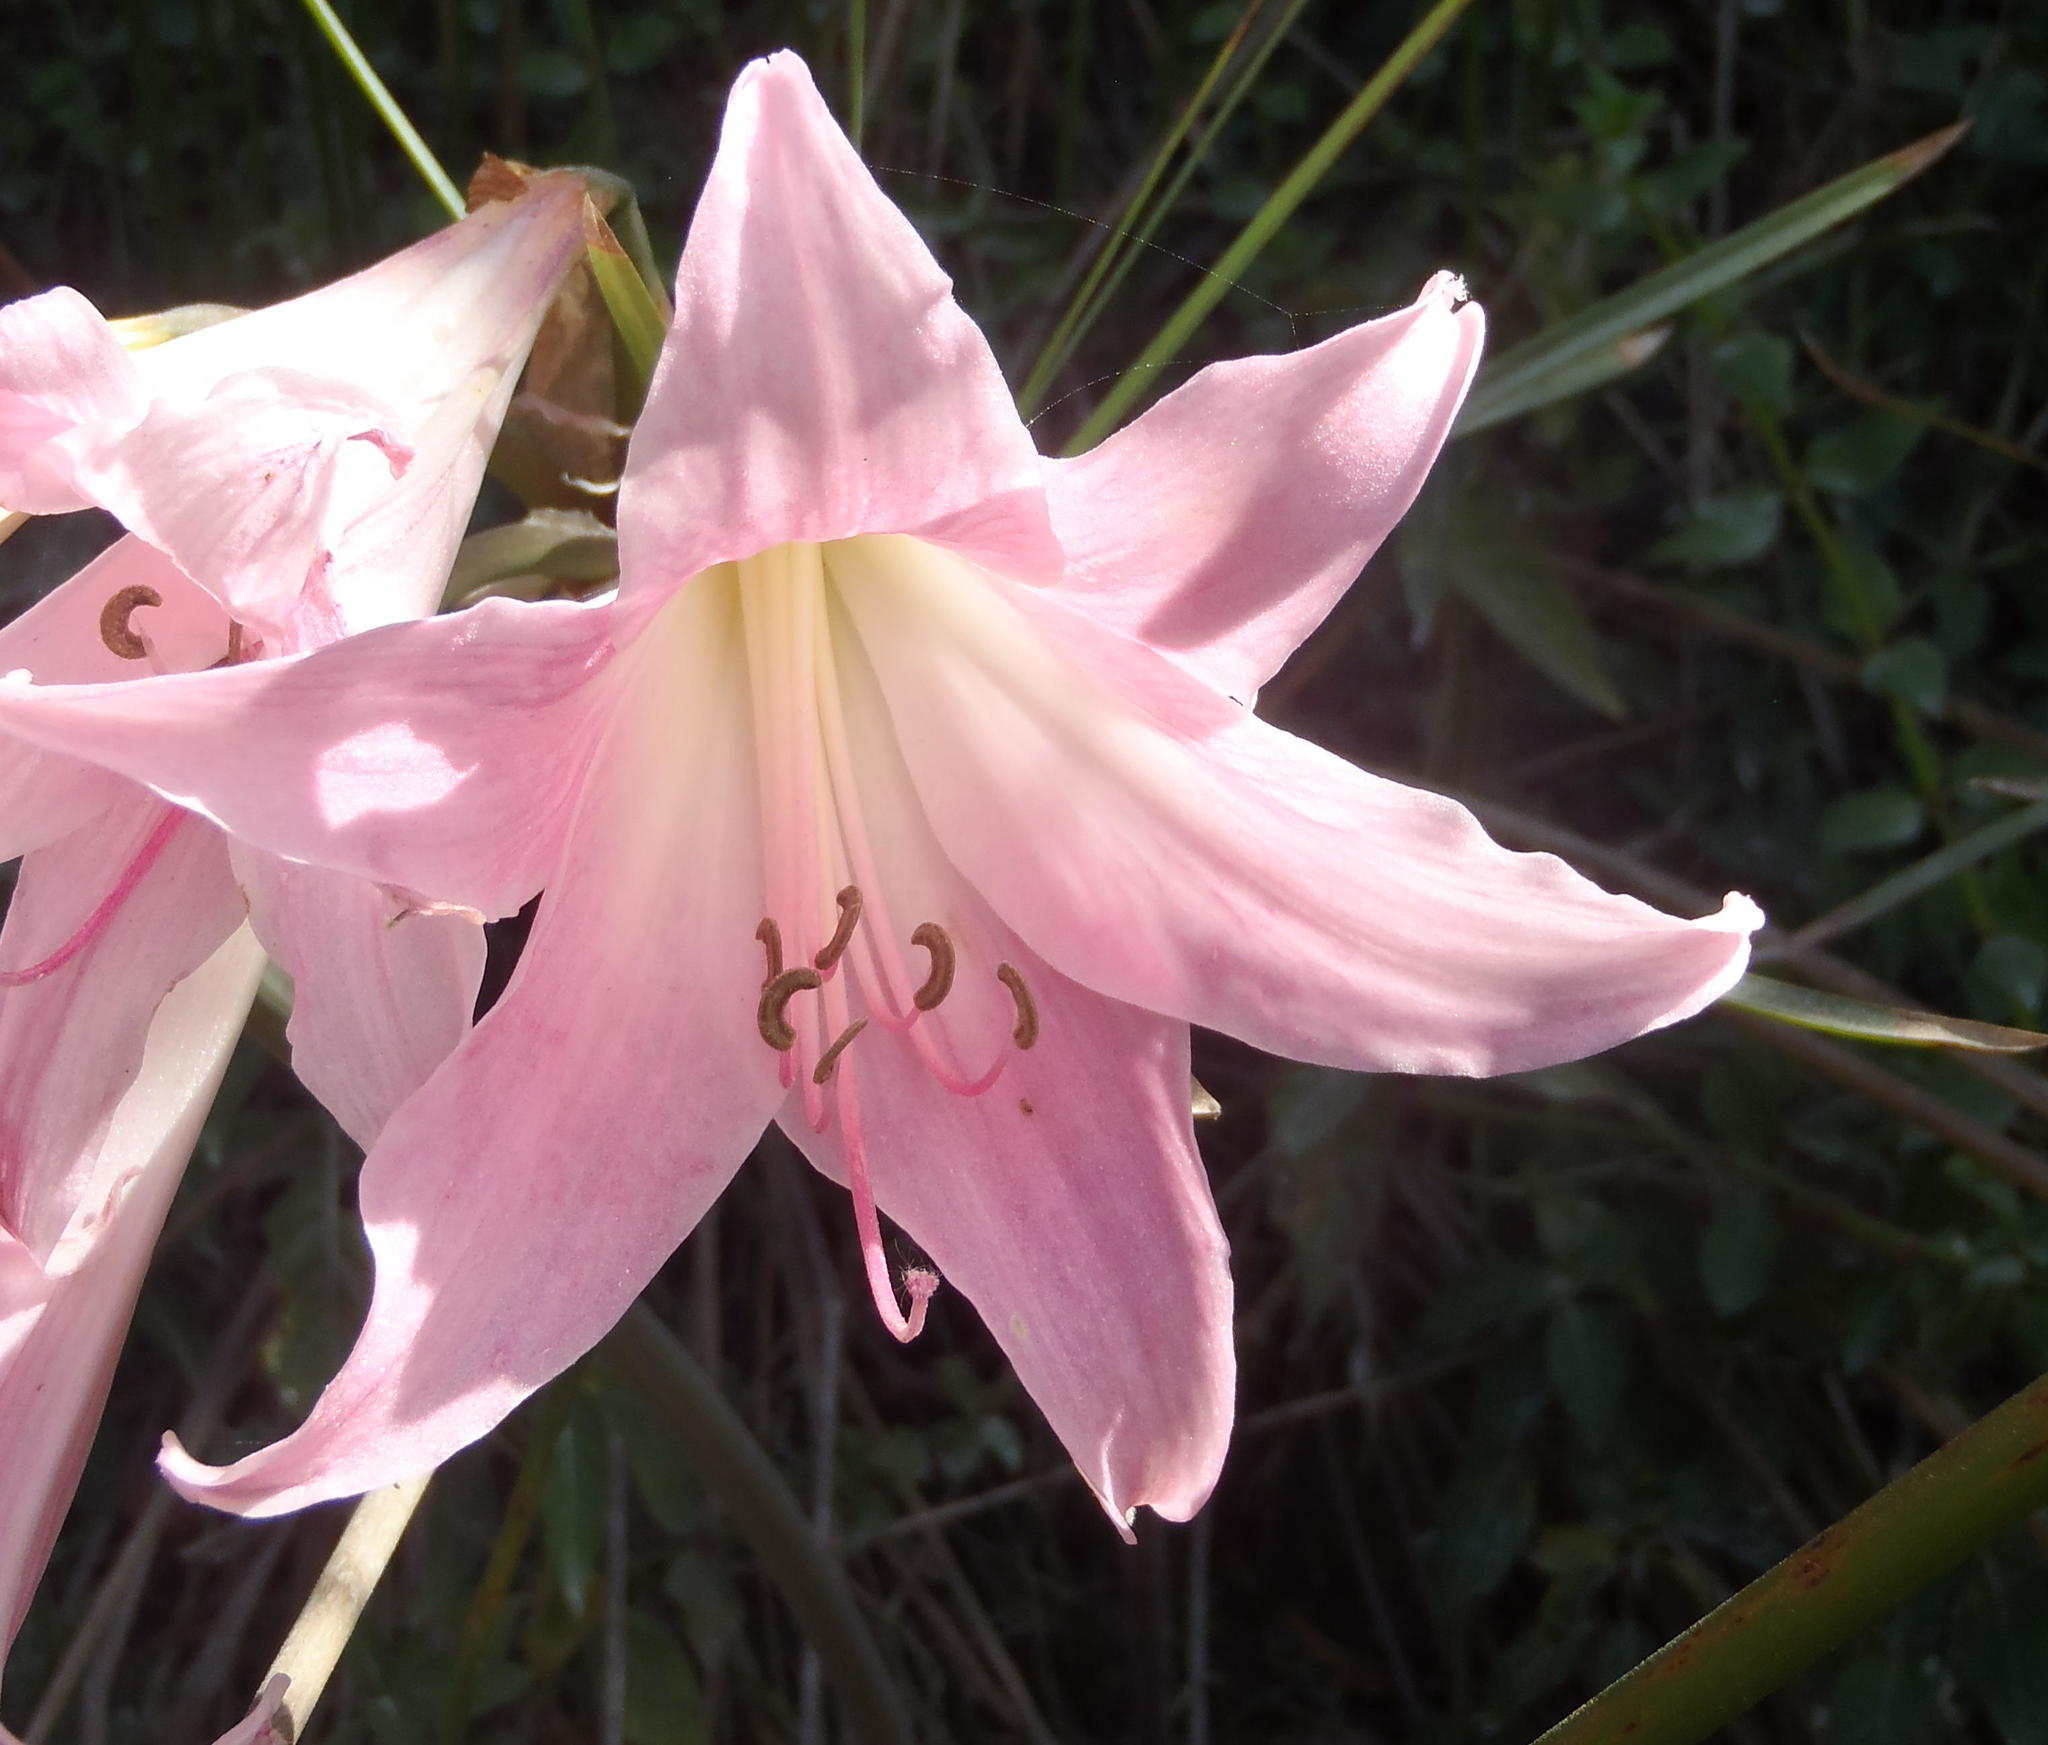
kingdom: Plantae
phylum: Tracheophyta
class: Liliopsida
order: Asparagales
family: Amaryllidaceae
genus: Amaryllis
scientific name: Amaryllis belladonna
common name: Jersey lily
